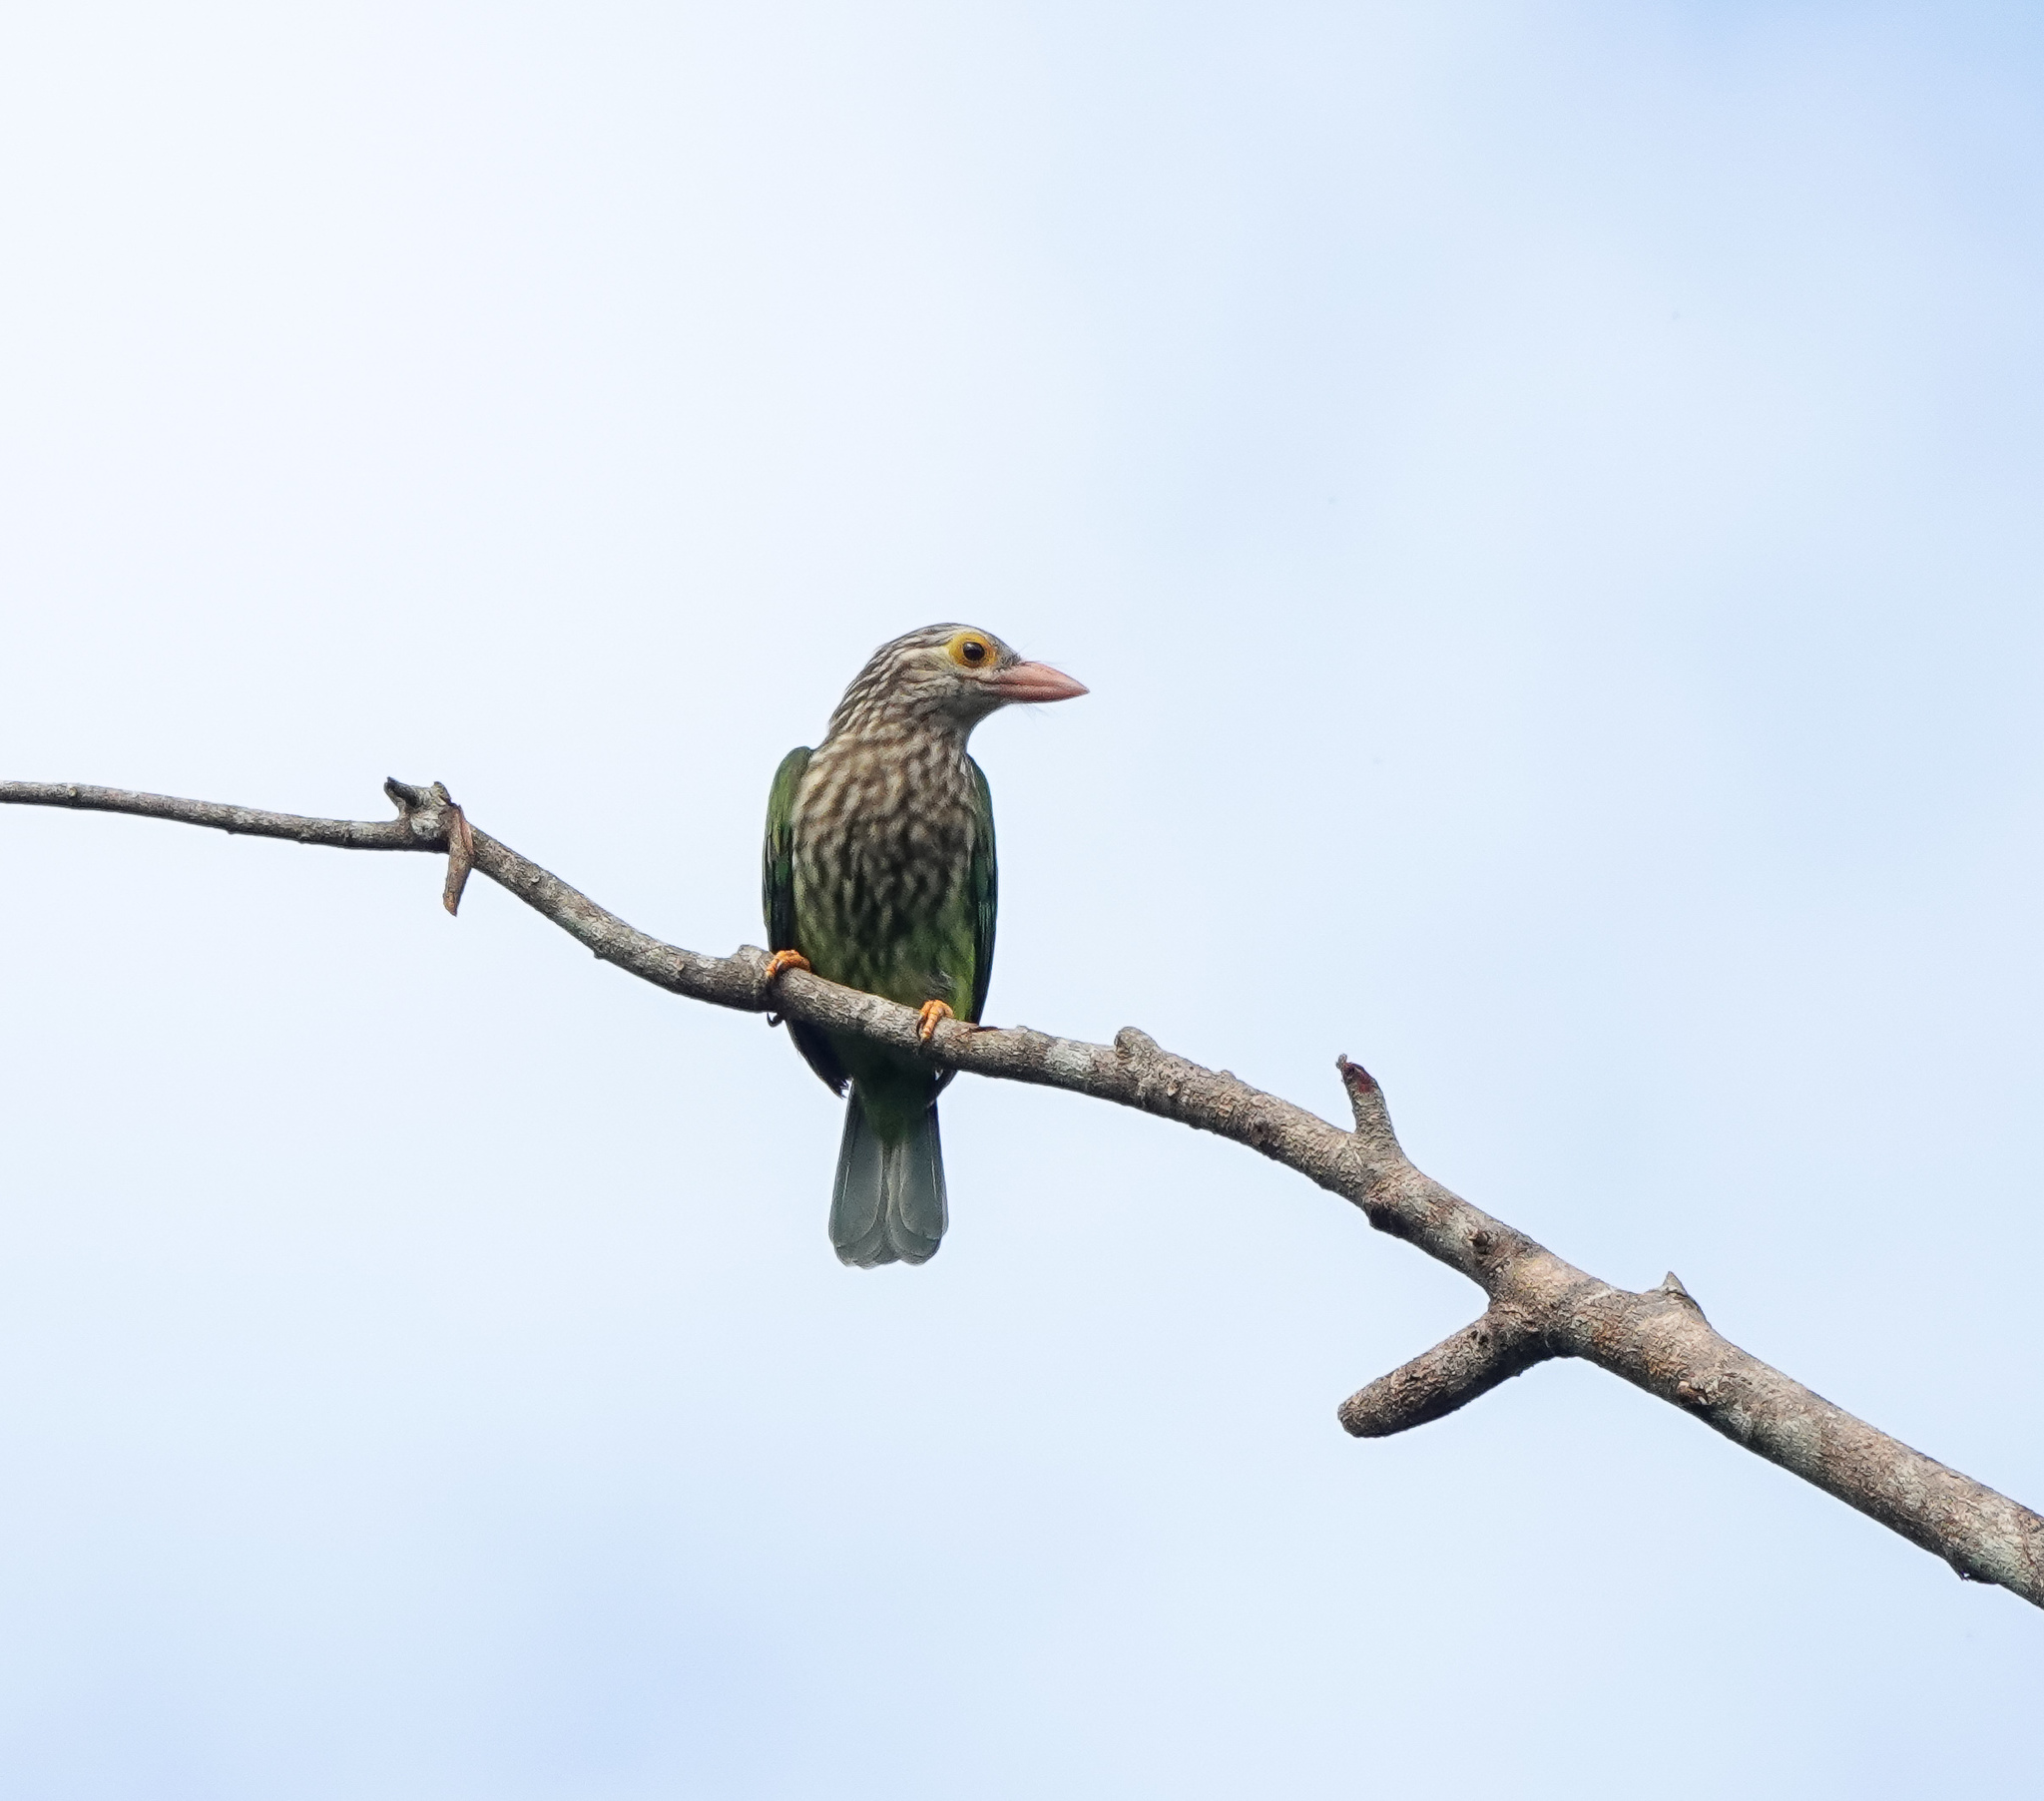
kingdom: Animalia
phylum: Chordata
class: Aves
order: Piciformes
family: Megalaimidae
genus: Psilopogon
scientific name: Psilopogon lineatus
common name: Lineated barbet
